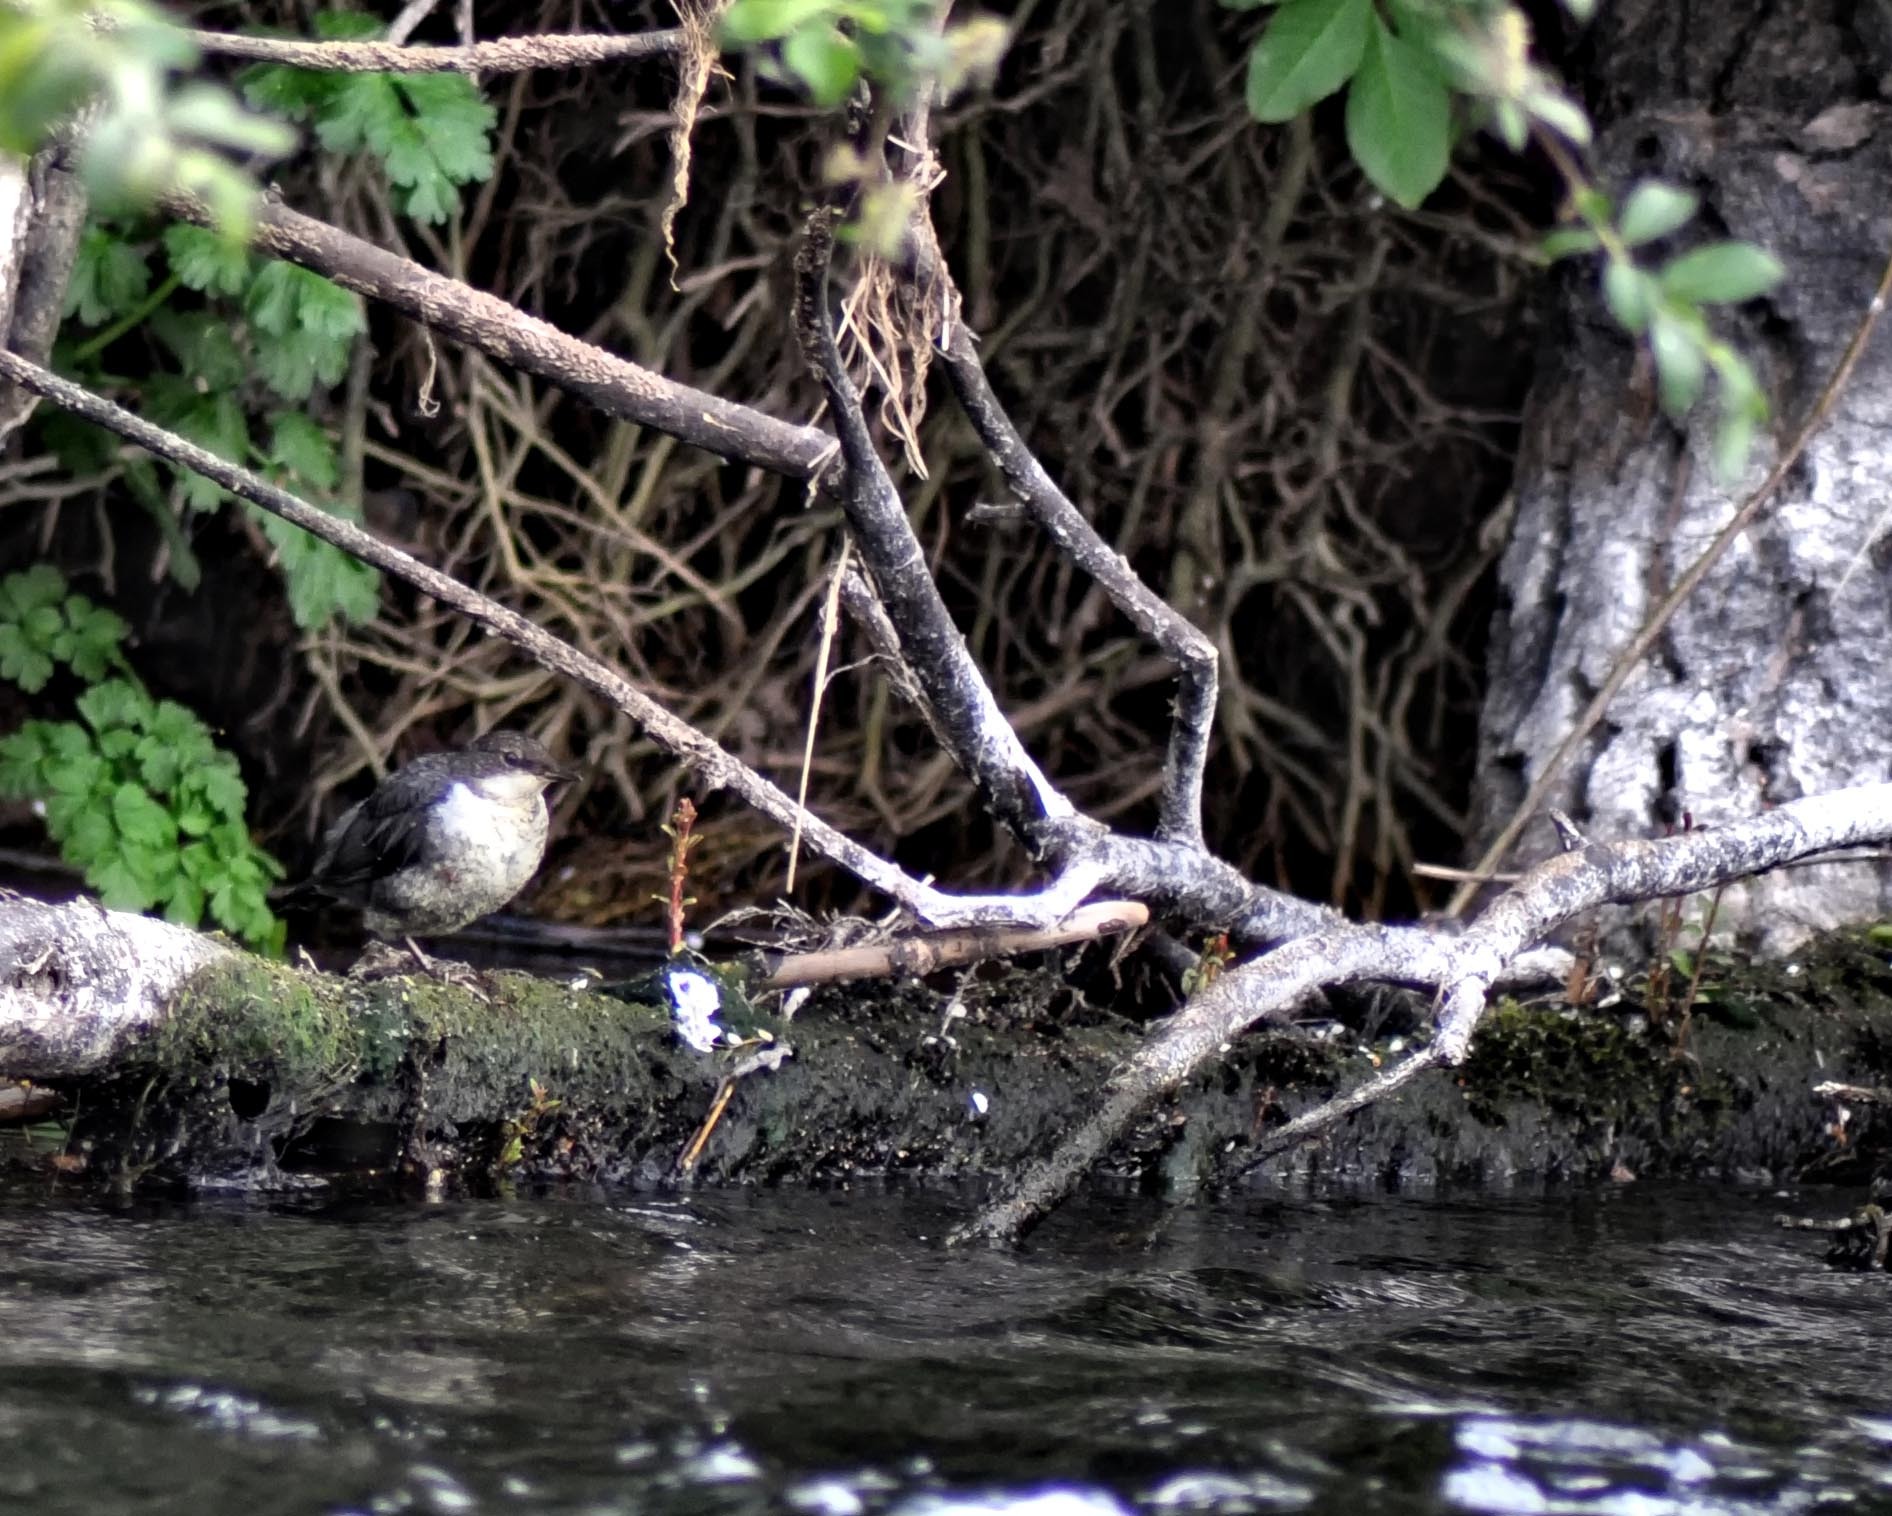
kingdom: Animalia
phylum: Chordata
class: Aves
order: Passeriformes
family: Cinclidae
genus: Cinclus
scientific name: Cinclus cinclus
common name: White-throated dipper
